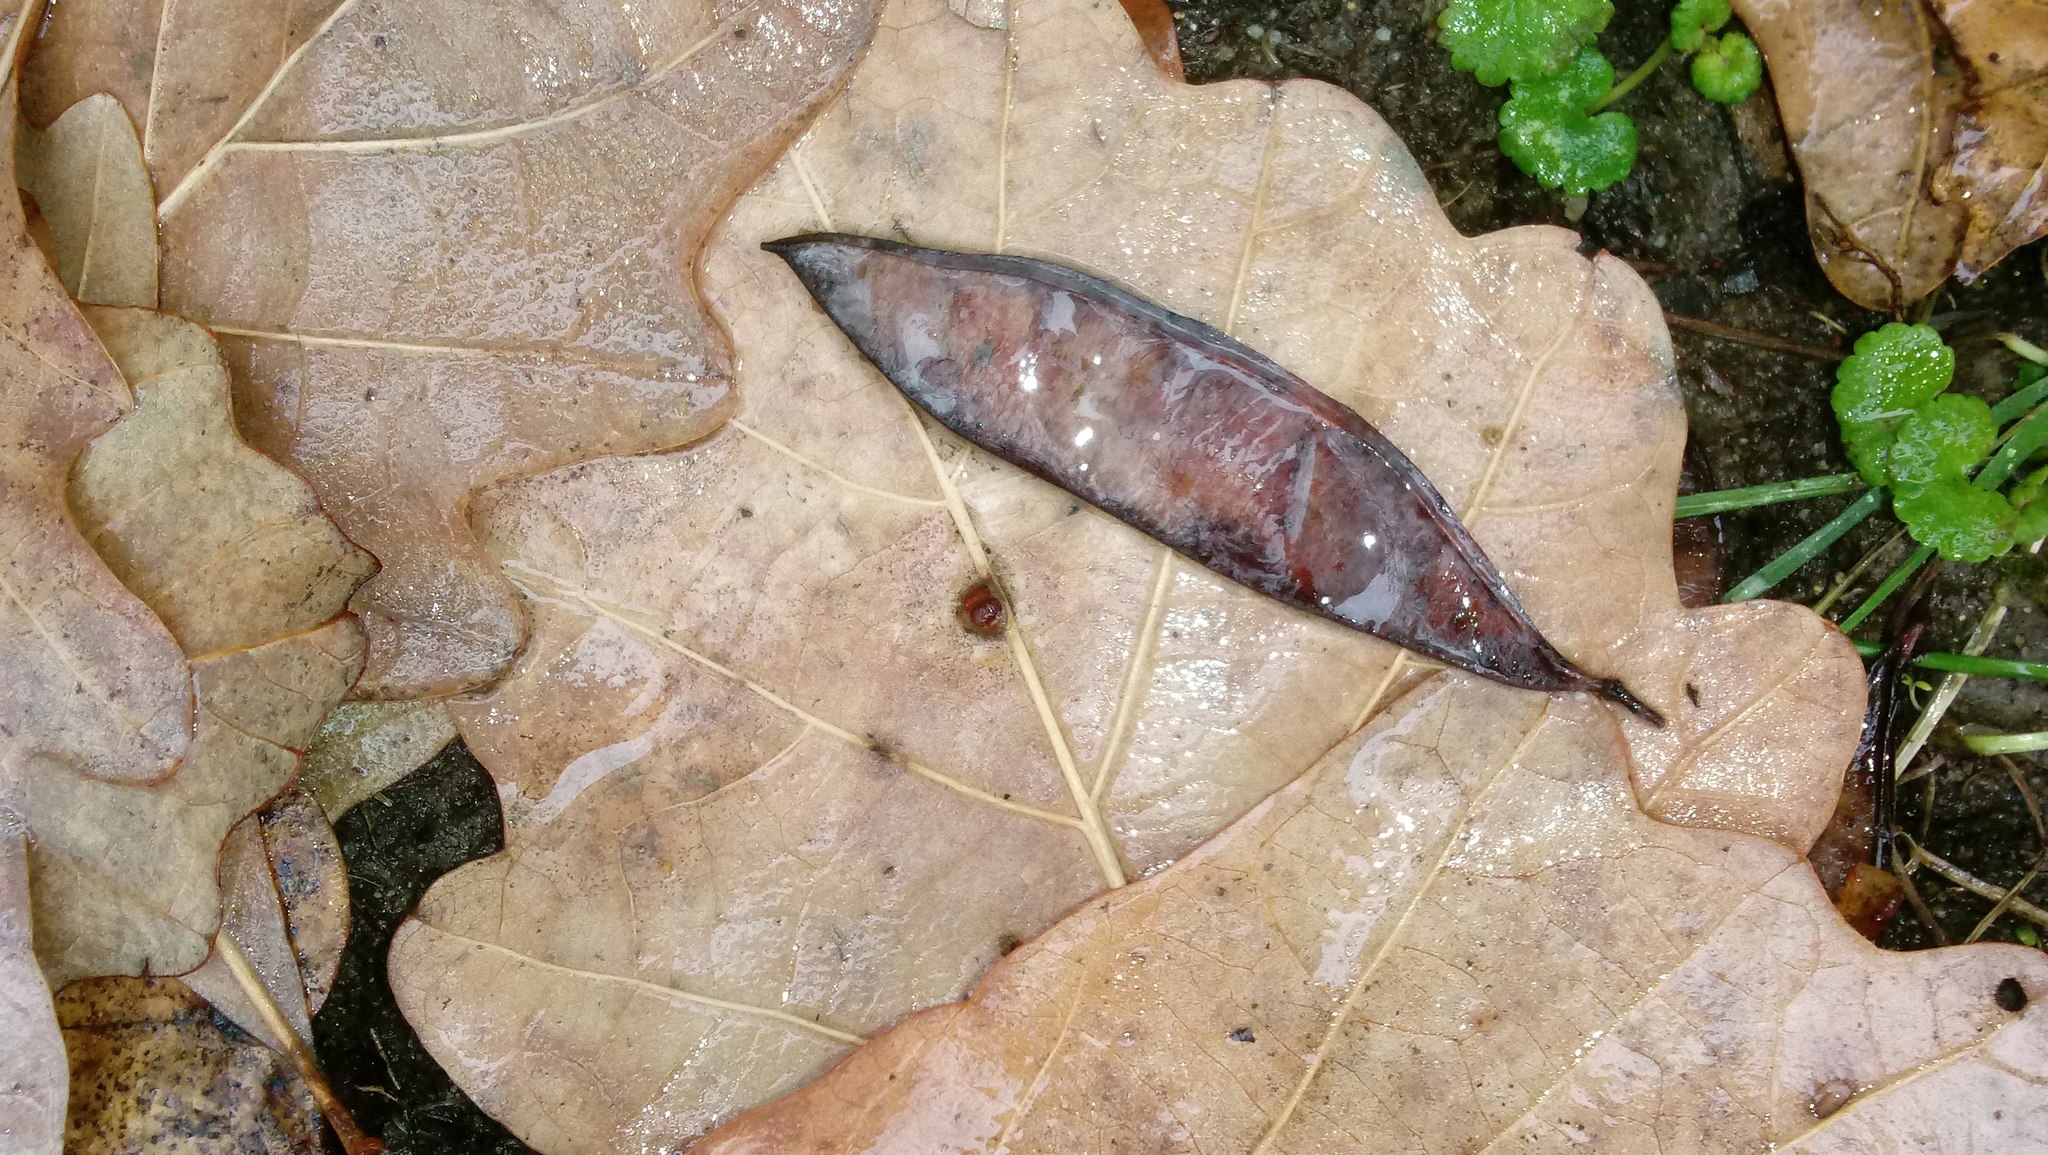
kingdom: Animalia
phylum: Arthropoda
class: Insecta
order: Hymenoptera
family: Cynipidae
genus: Andricus
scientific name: Andricus Druon ignotum
